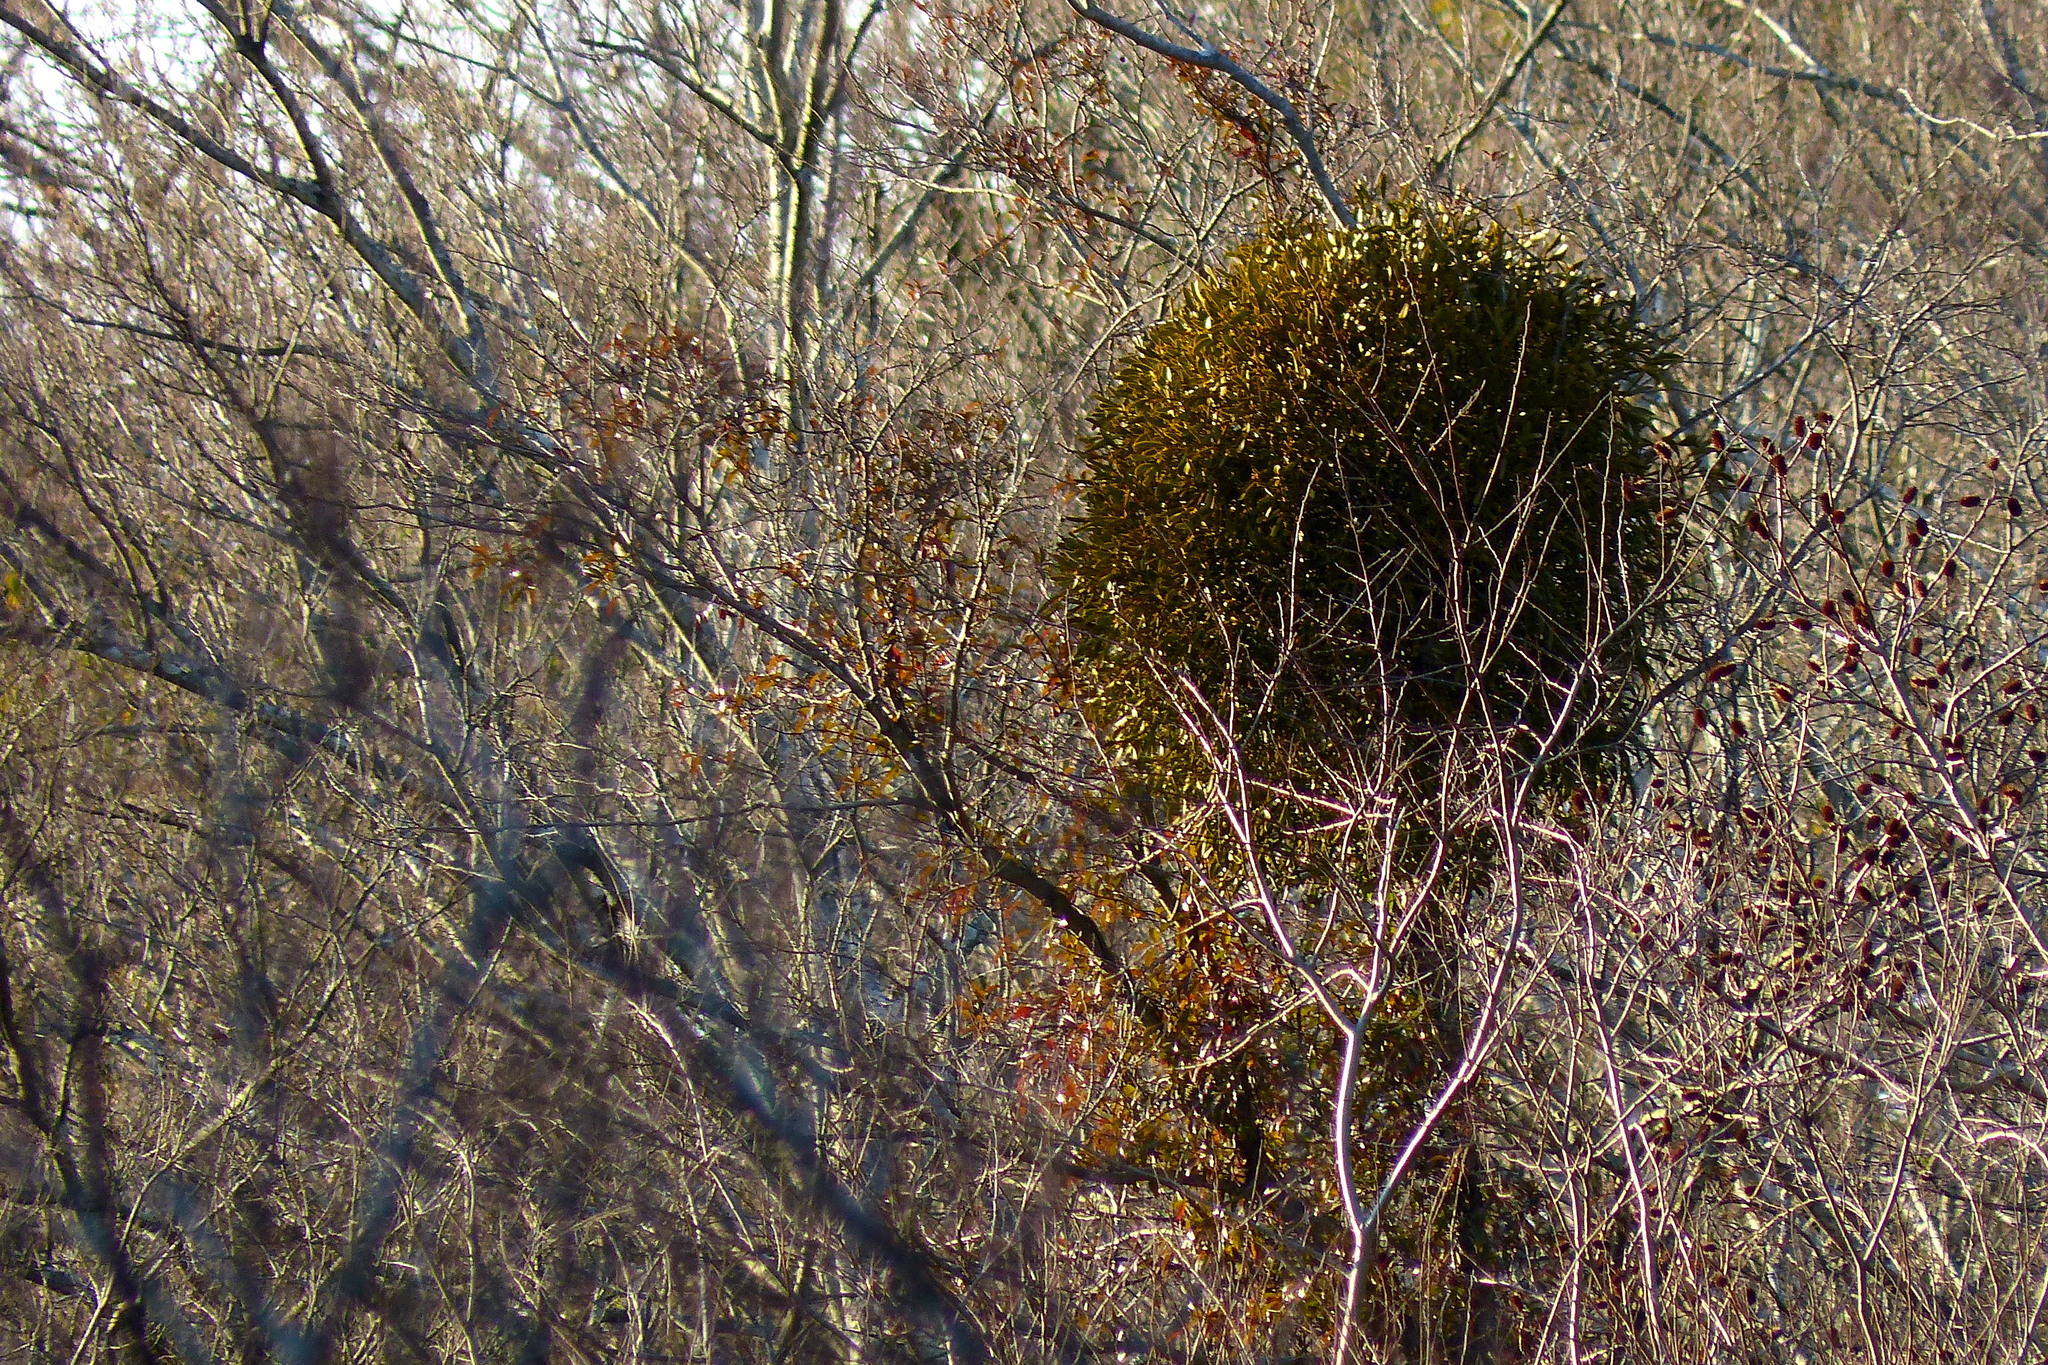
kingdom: Plantae
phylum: Tracheophyta
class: Magnoliopsida
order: Santalales
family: Viscaceae
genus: Viscum
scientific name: Viscum album
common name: Mistletoe
